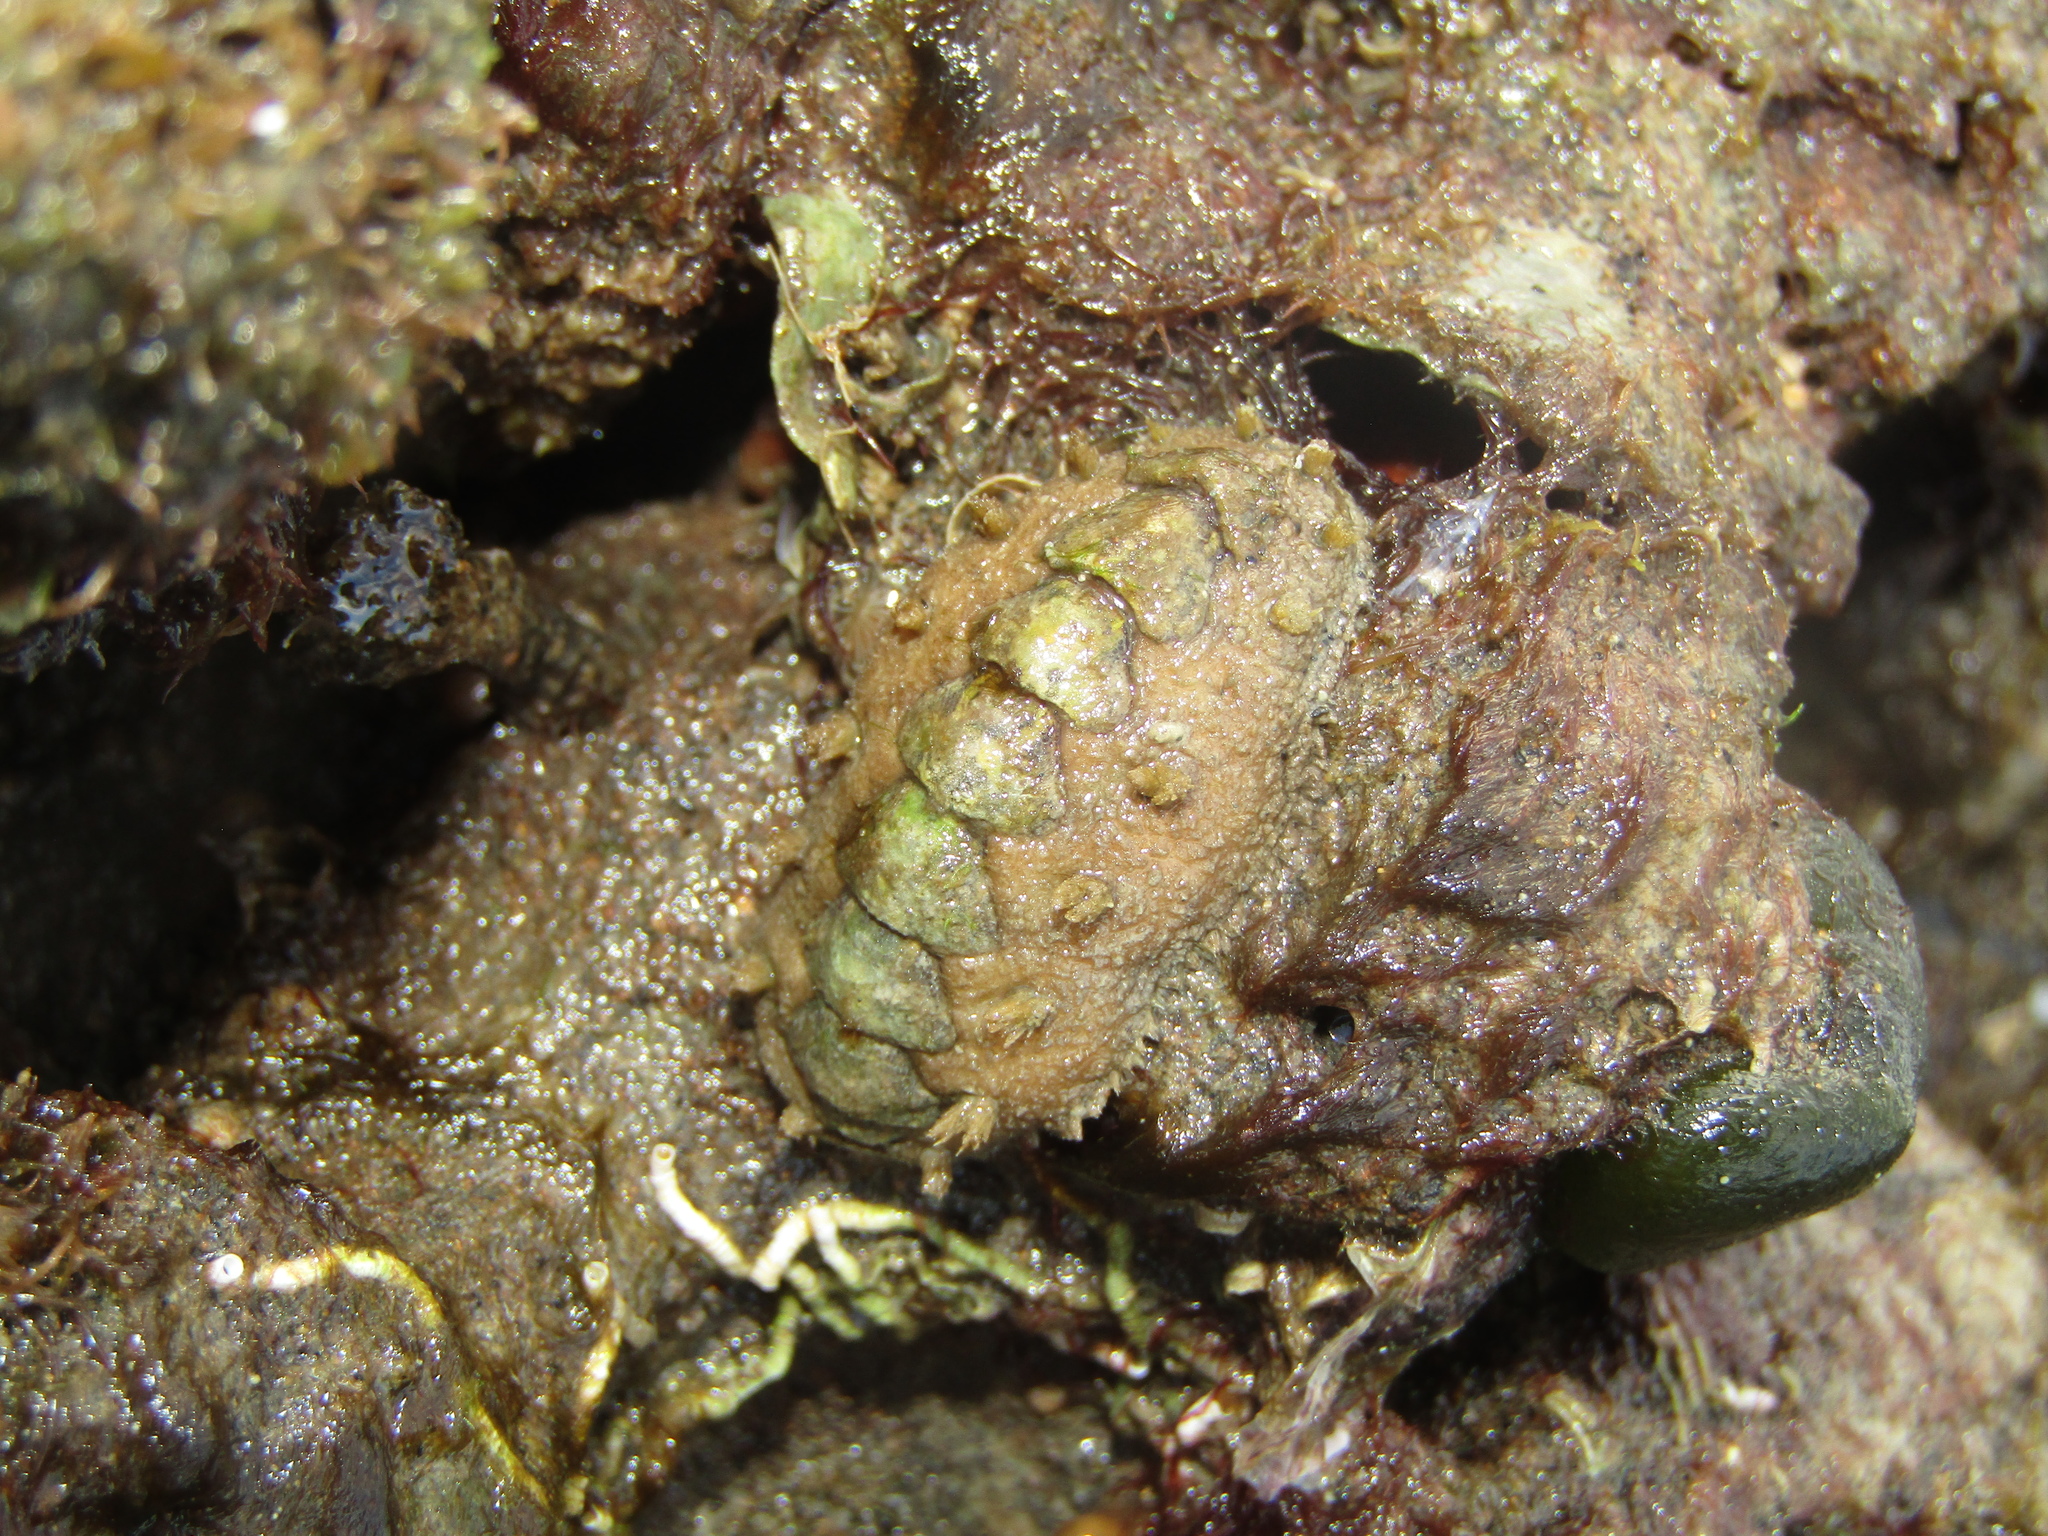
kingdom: Animalia
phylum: Mollusca
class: Polyplacophora
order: Chitonida
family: Acanthochitonidae
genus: Acanthochitona
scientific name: Acanthochitona zelandica
